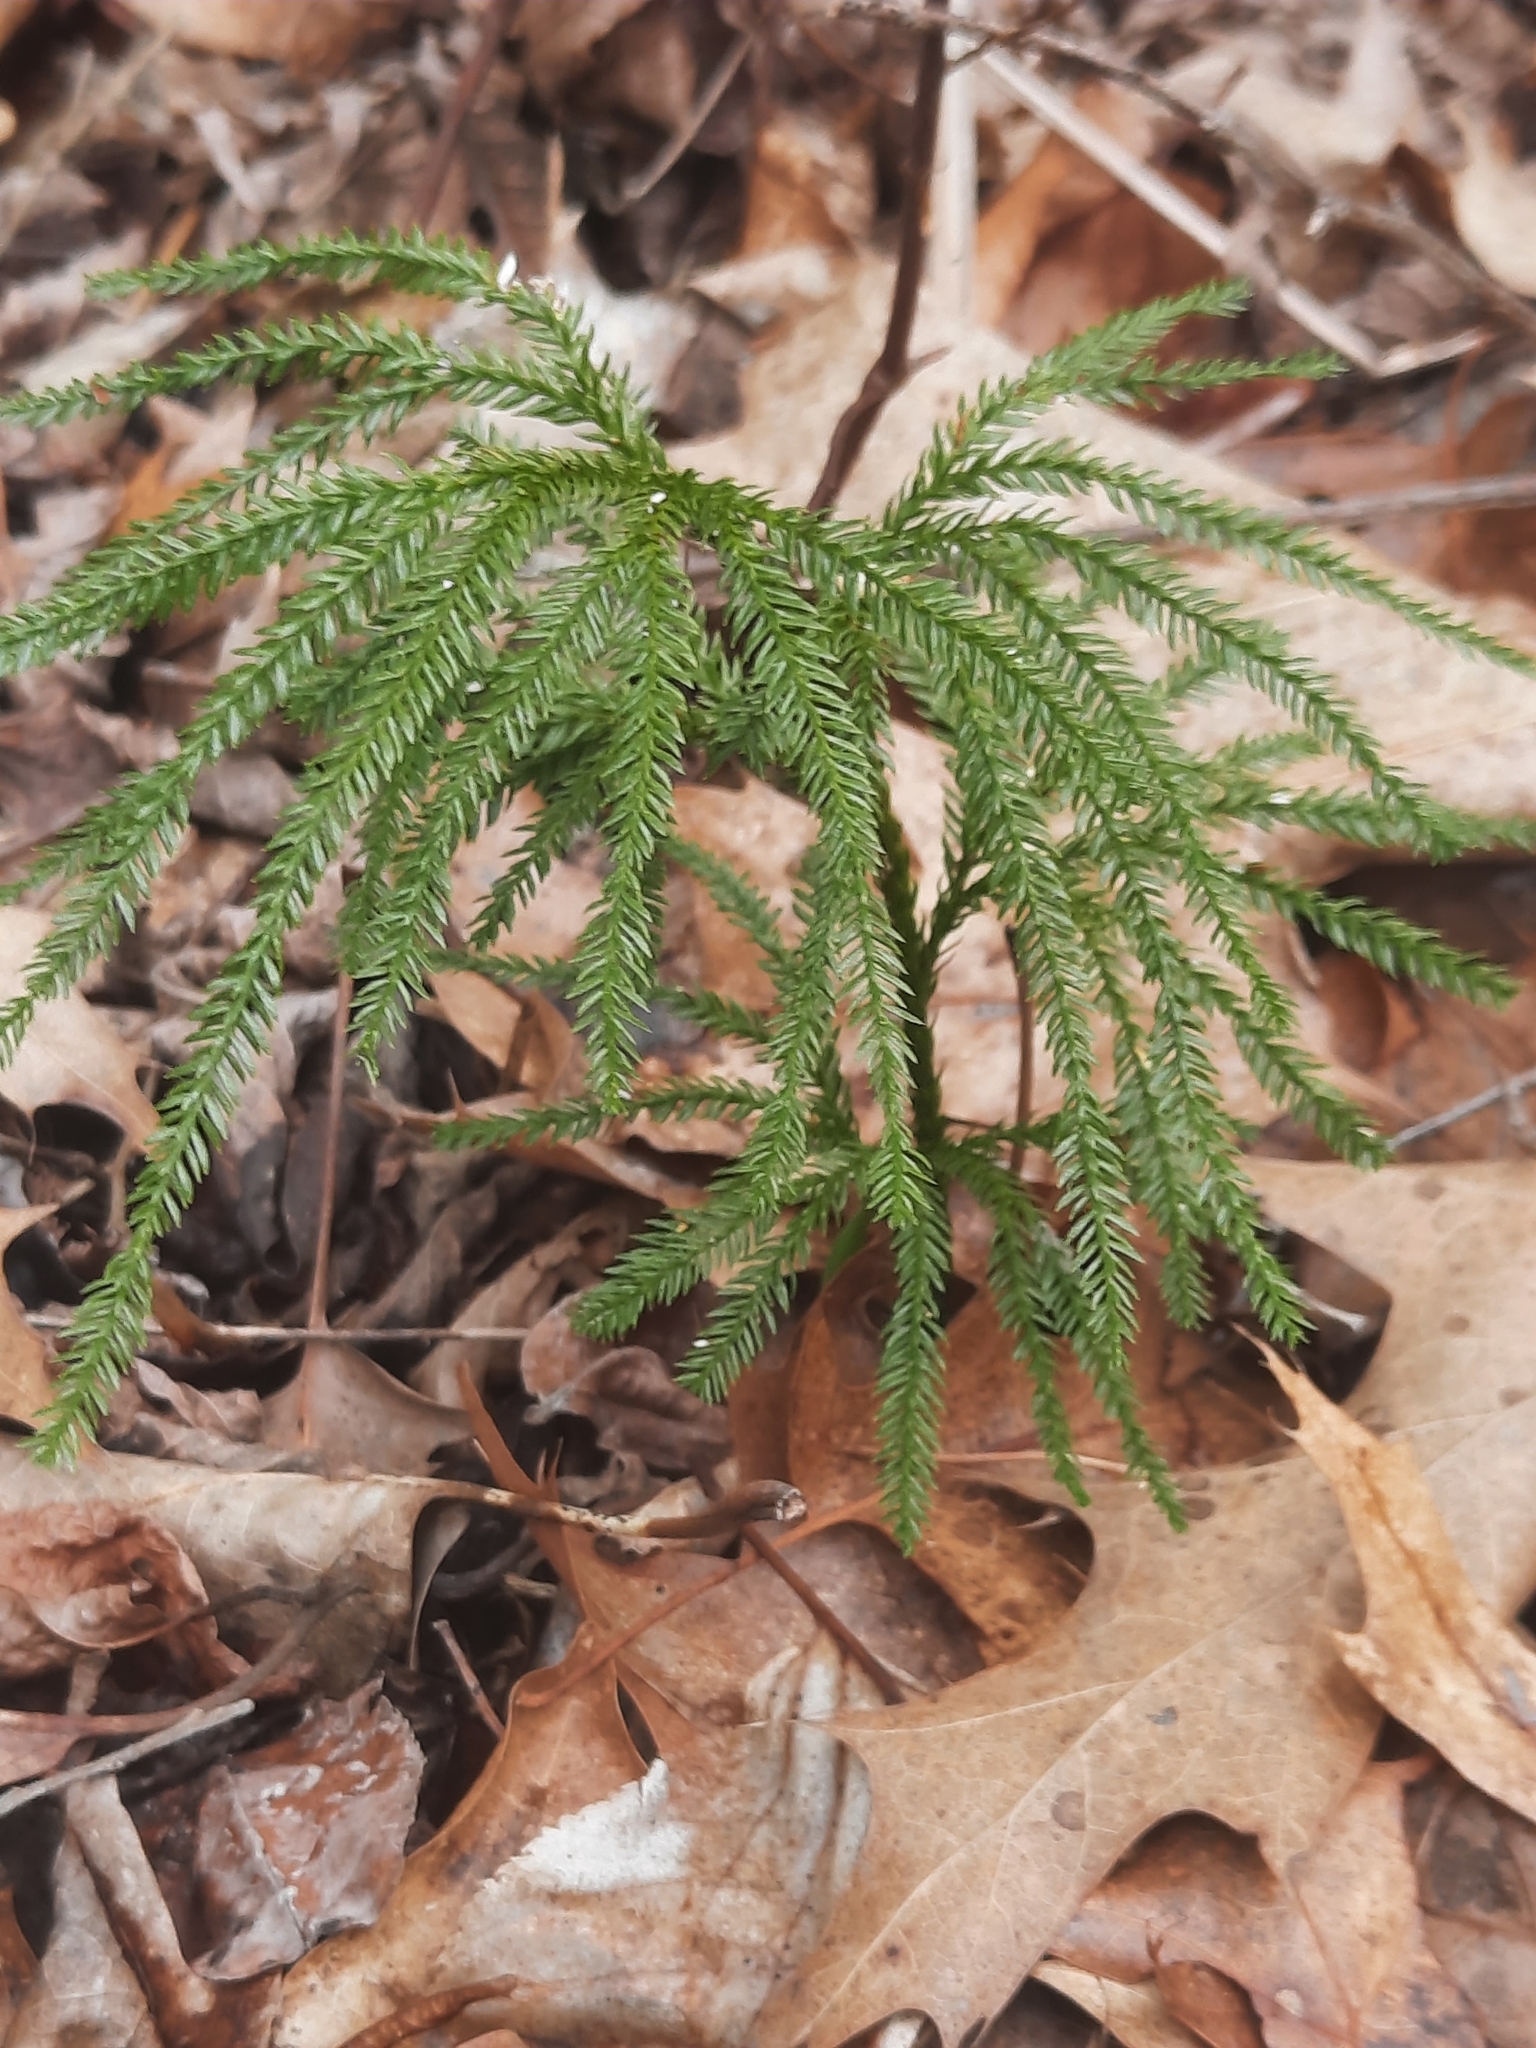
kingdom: Plantae
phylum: Tracheophyta
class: Lycopodiopsida
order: Lycopodiales
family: Lycopodiaceae
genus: Dendrolycopodium
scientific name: Dendrolycopodium obscurum
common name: Common ground-pine
